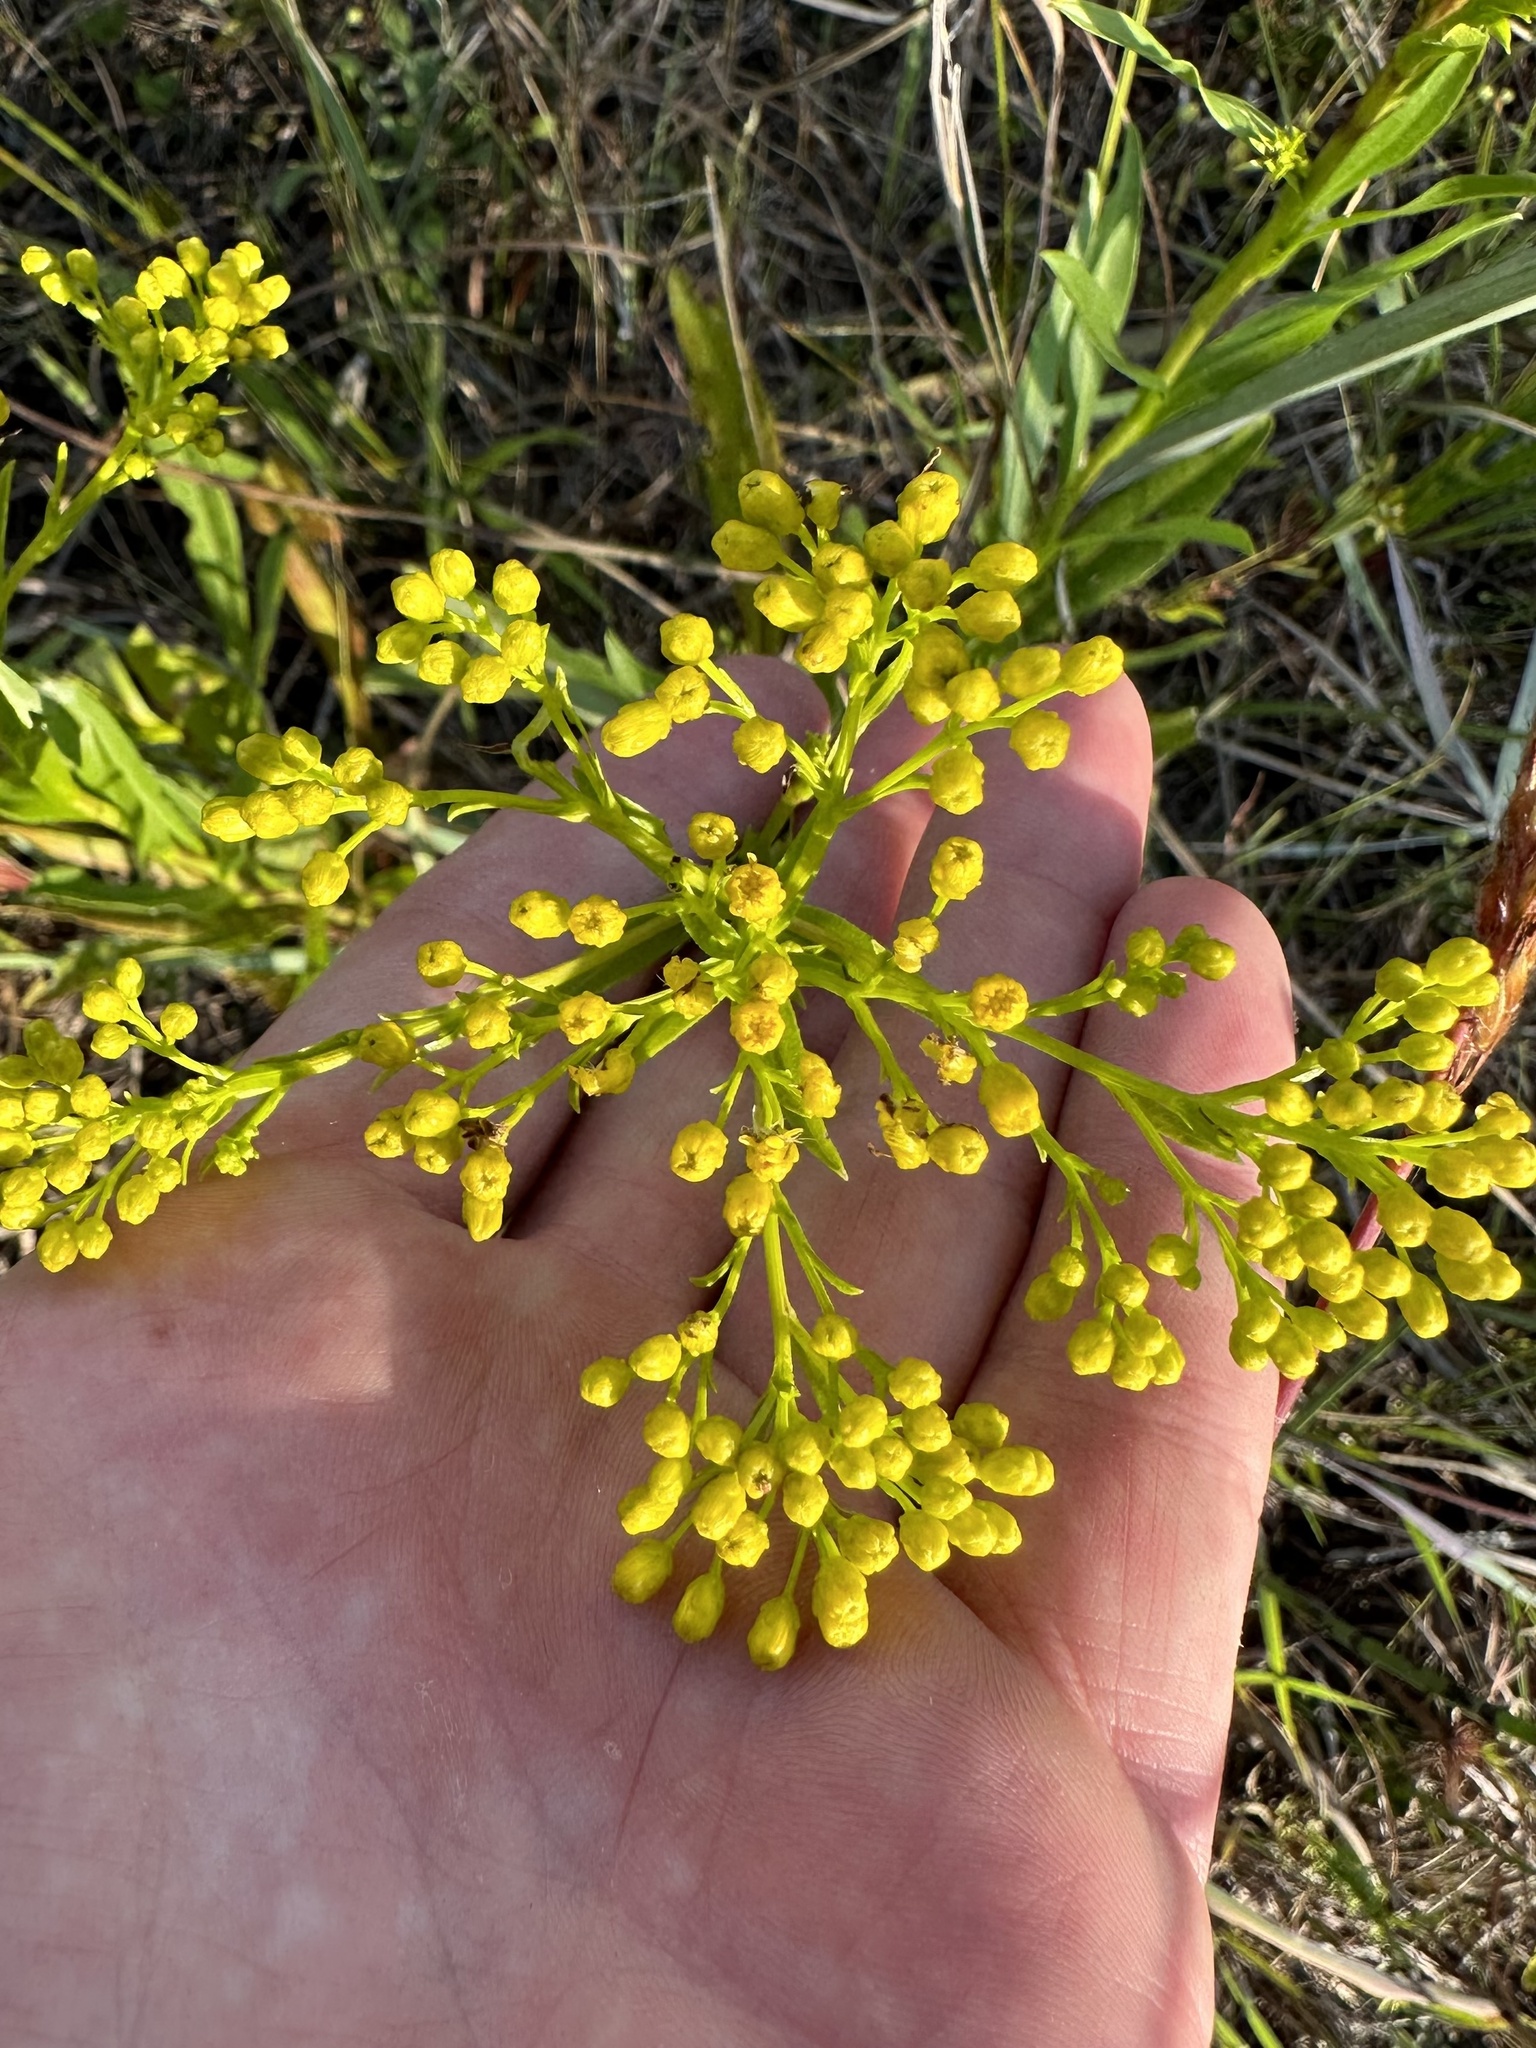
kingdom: Plantae
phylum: Tracheophyta
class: Magnoliopsida
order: Asterales
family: Asteraceae
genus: Solidago
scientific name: Solidago ohioensis
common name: Ohio goldenrod
